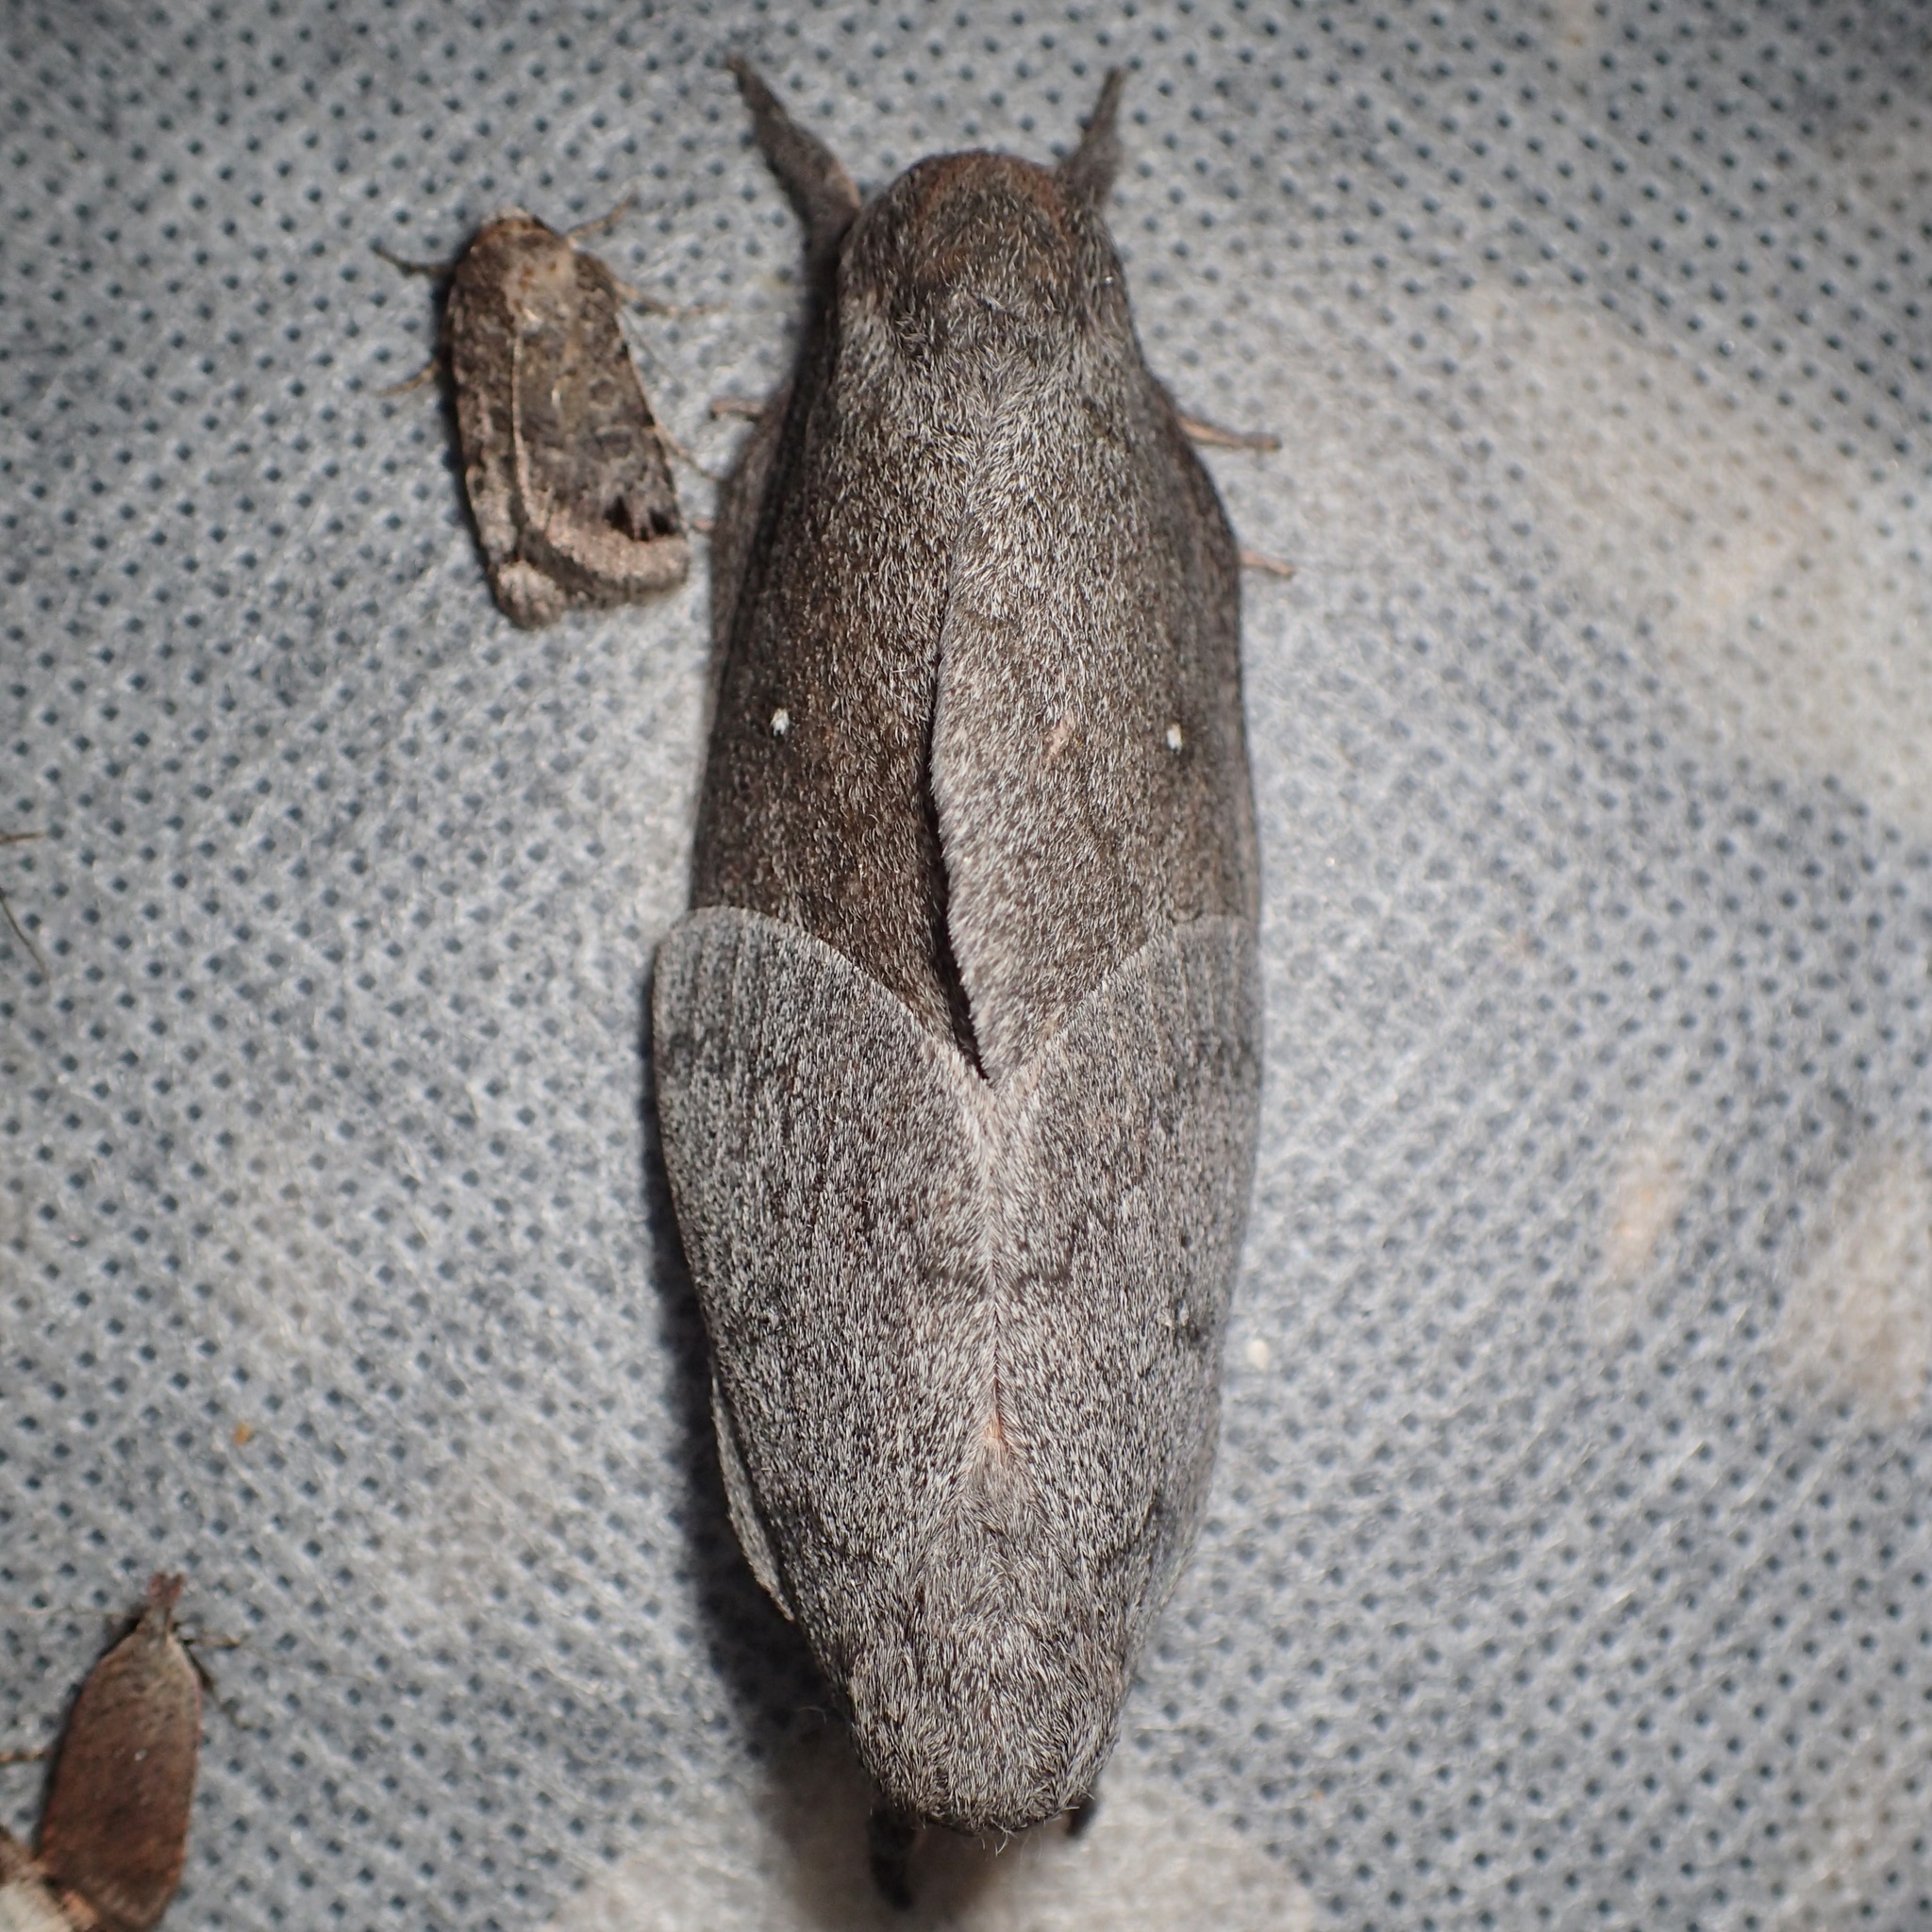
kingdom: Animalia
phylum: Arthropoda
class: Insecta
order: Lepidoptera
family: Saturniidae
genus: Syssphinx
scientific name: Syssphinx hubbardi
